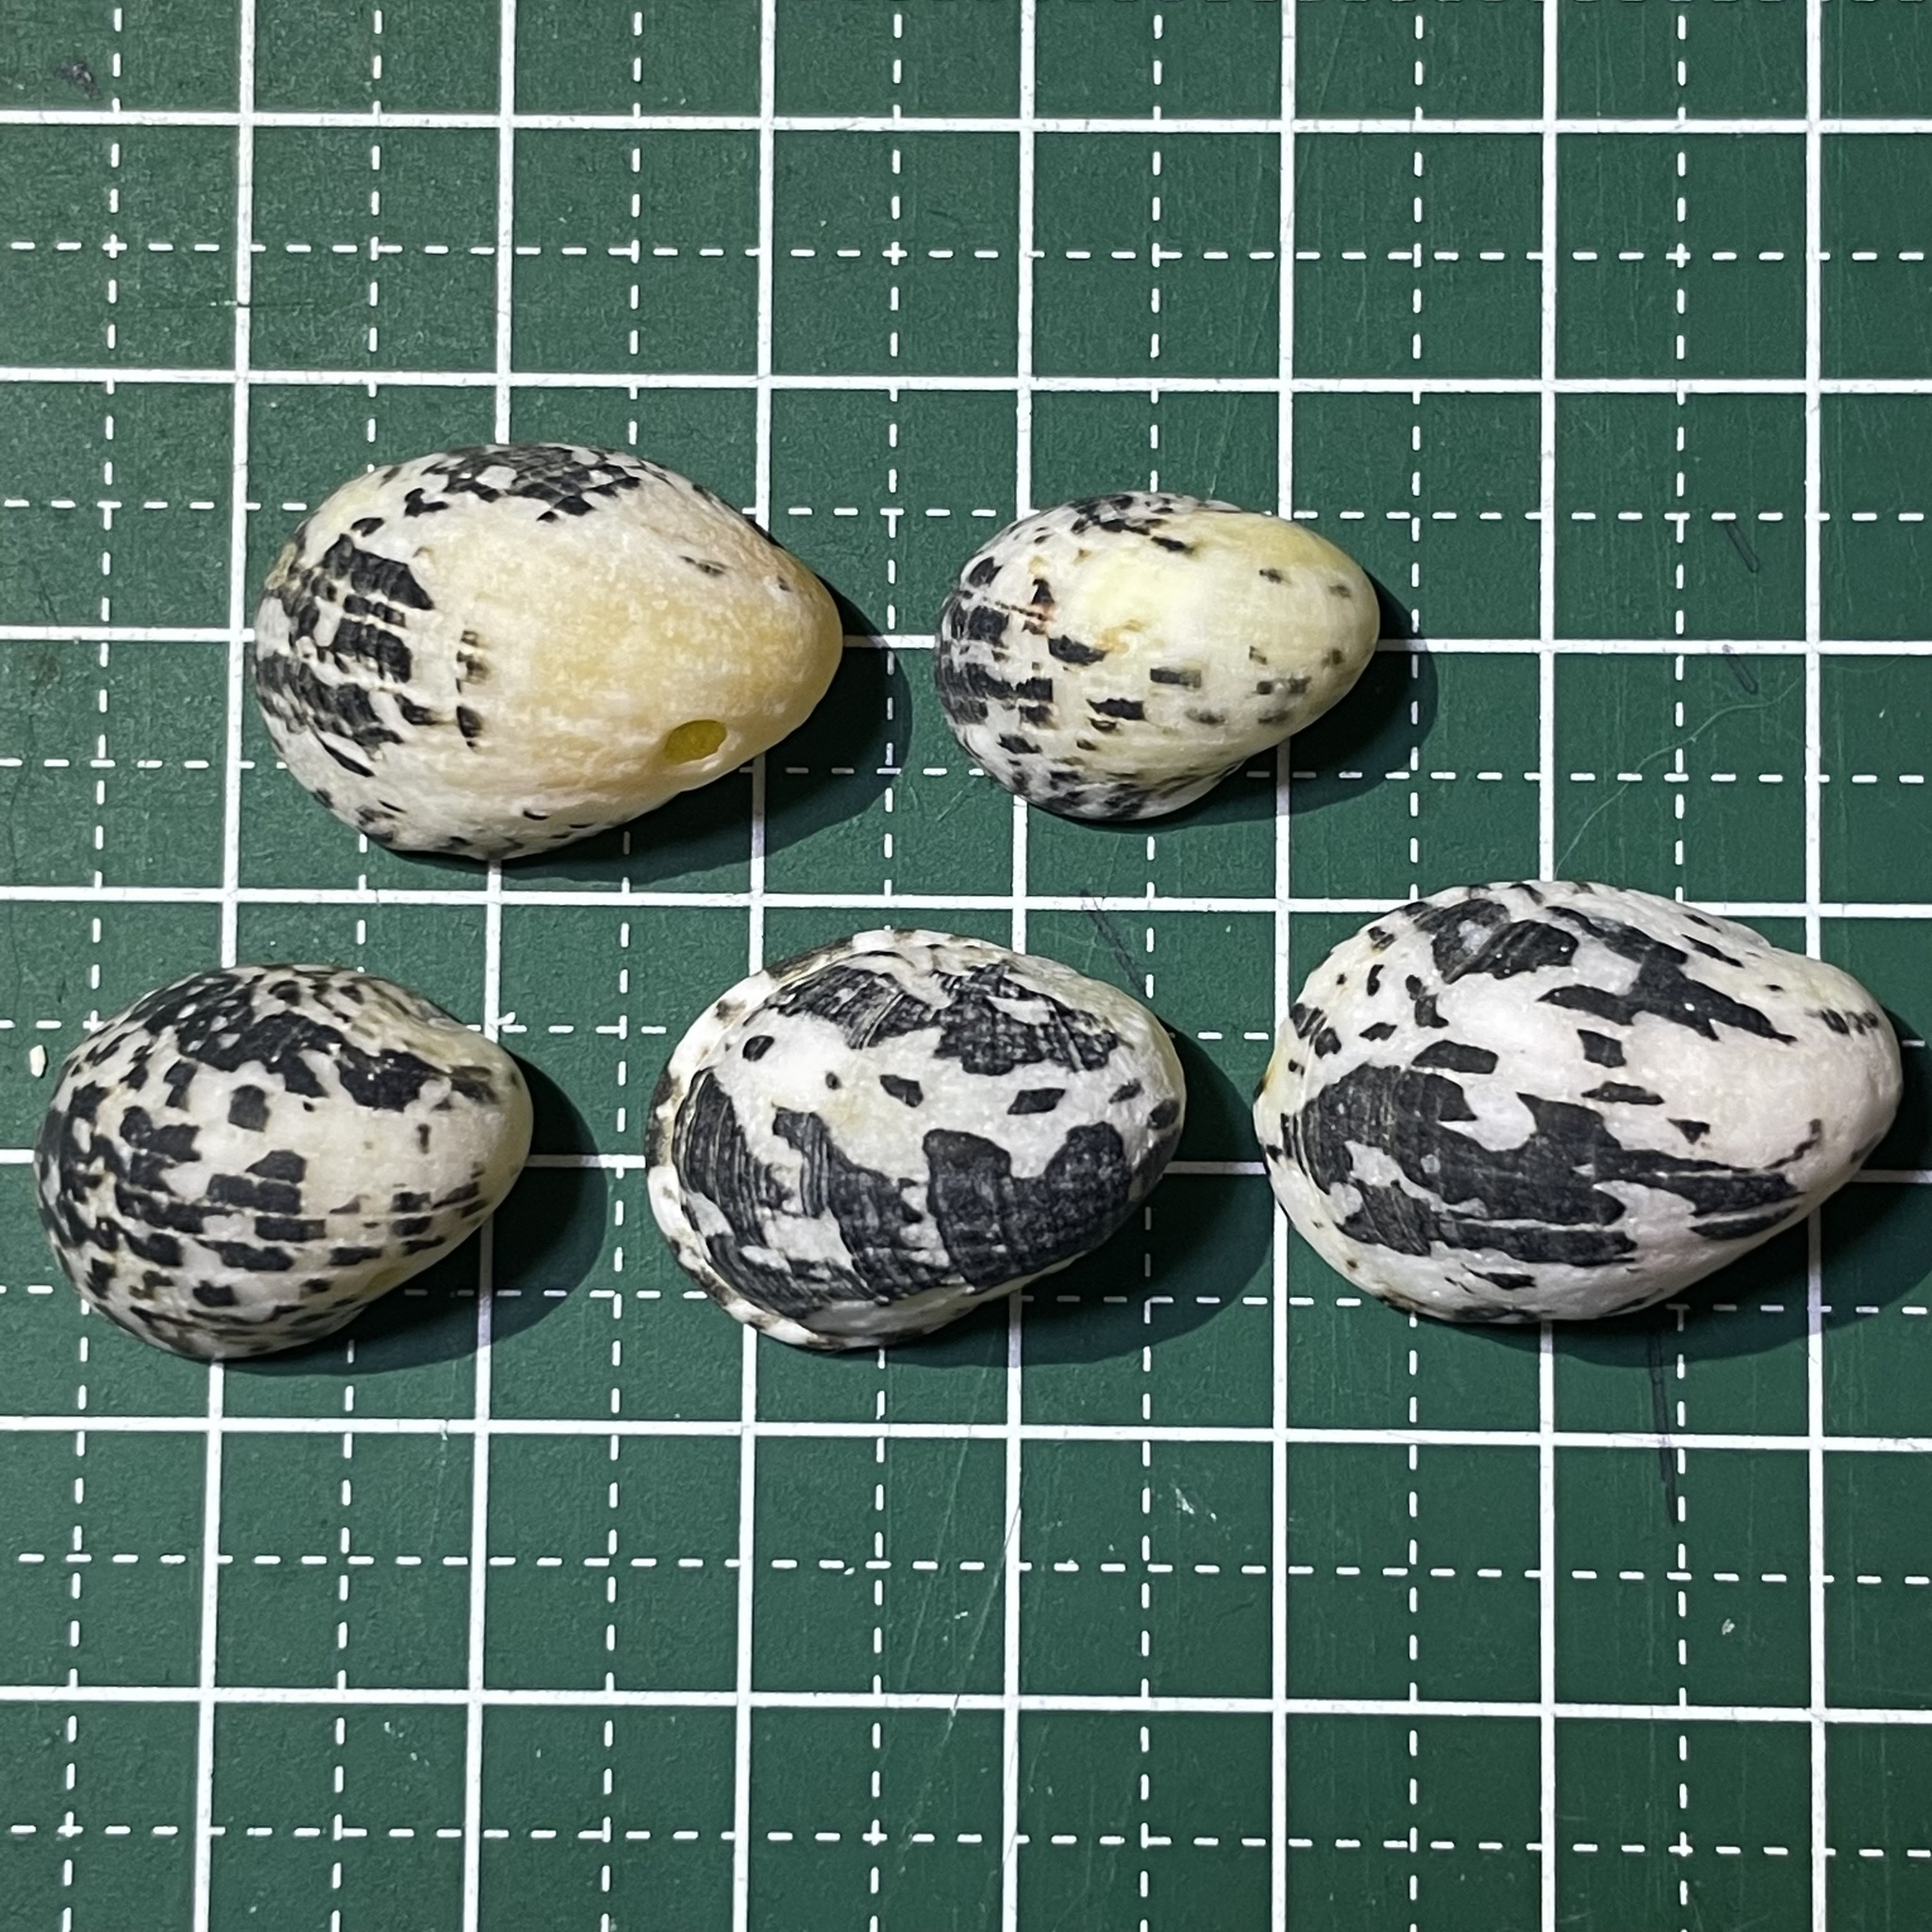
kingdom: Animalia
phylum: Mollusca
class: Gastropoda
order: Cycloneritida
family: Neritidae
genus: Nerita
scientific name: Nerita albicilla
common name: Blotched nerite
